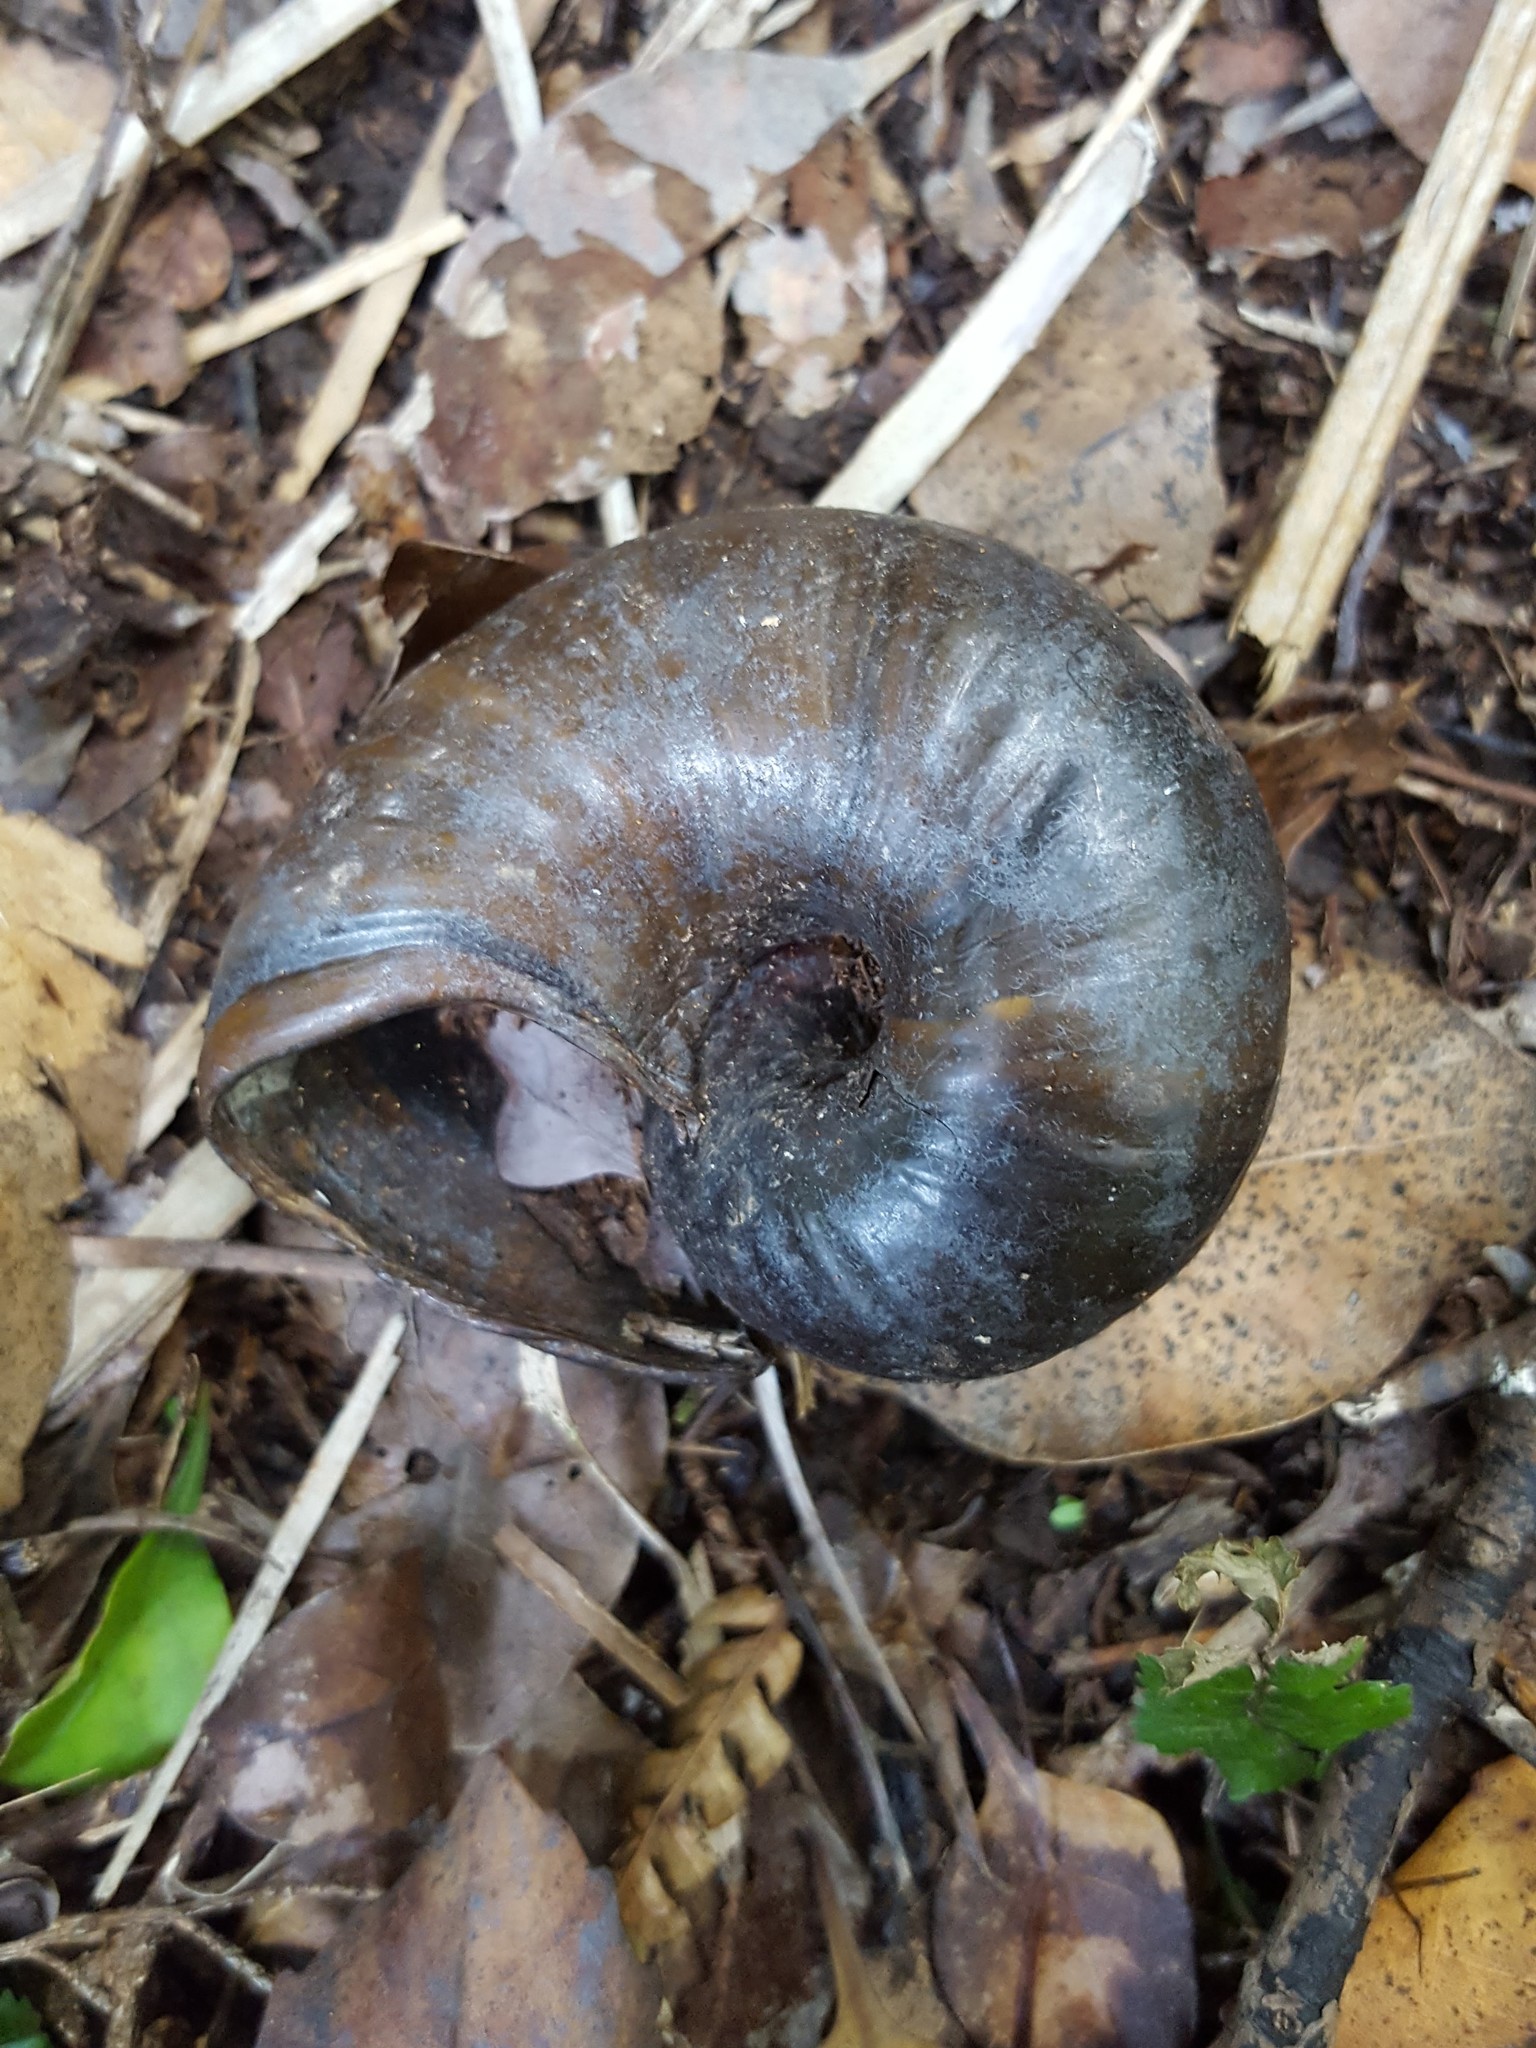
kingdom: Animalia
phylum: Mollusca
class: Gastropoda
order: Stylommatophora
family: Rhytididae
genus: Paryphanta
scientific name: Paryphanta busbyi
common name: Kauri snail
